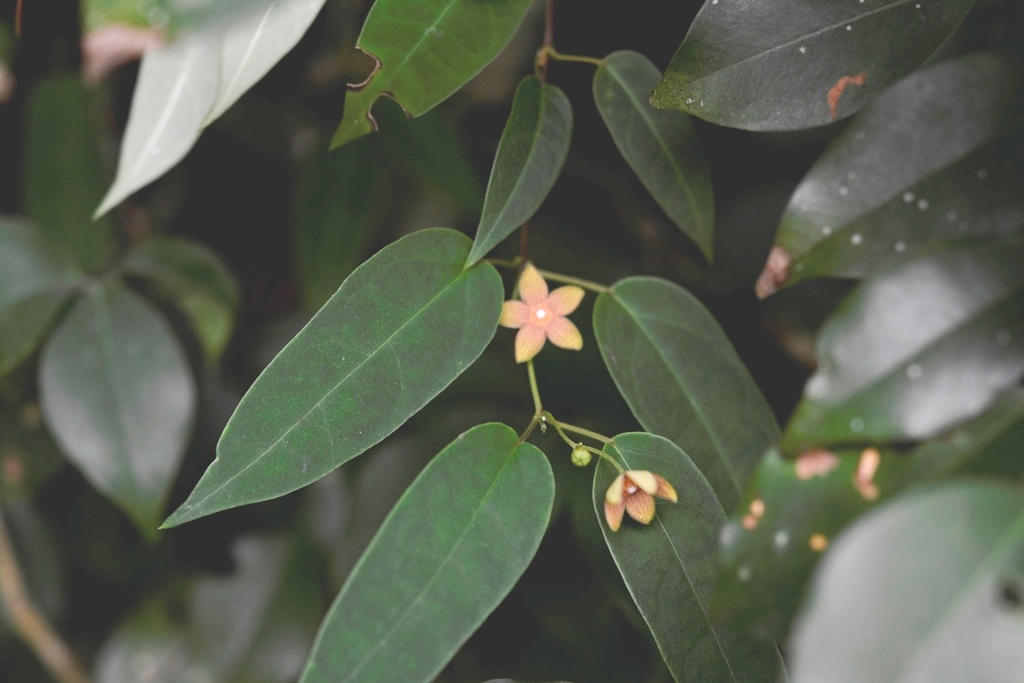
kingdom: Plantae
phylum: Tracheophyta
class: Magnoliopsida
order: Gentianales
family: Apocynaceae
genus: Ruehssia
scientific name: Ruehssia sumiderensis
